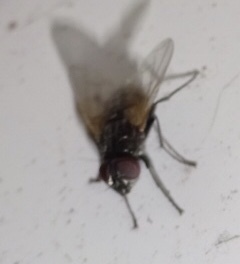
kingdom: Animalia
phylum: Arthropoda
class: Insecta
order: Diptera
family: Muscidae
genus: Musca
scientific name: Musca domestica
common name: House fly
